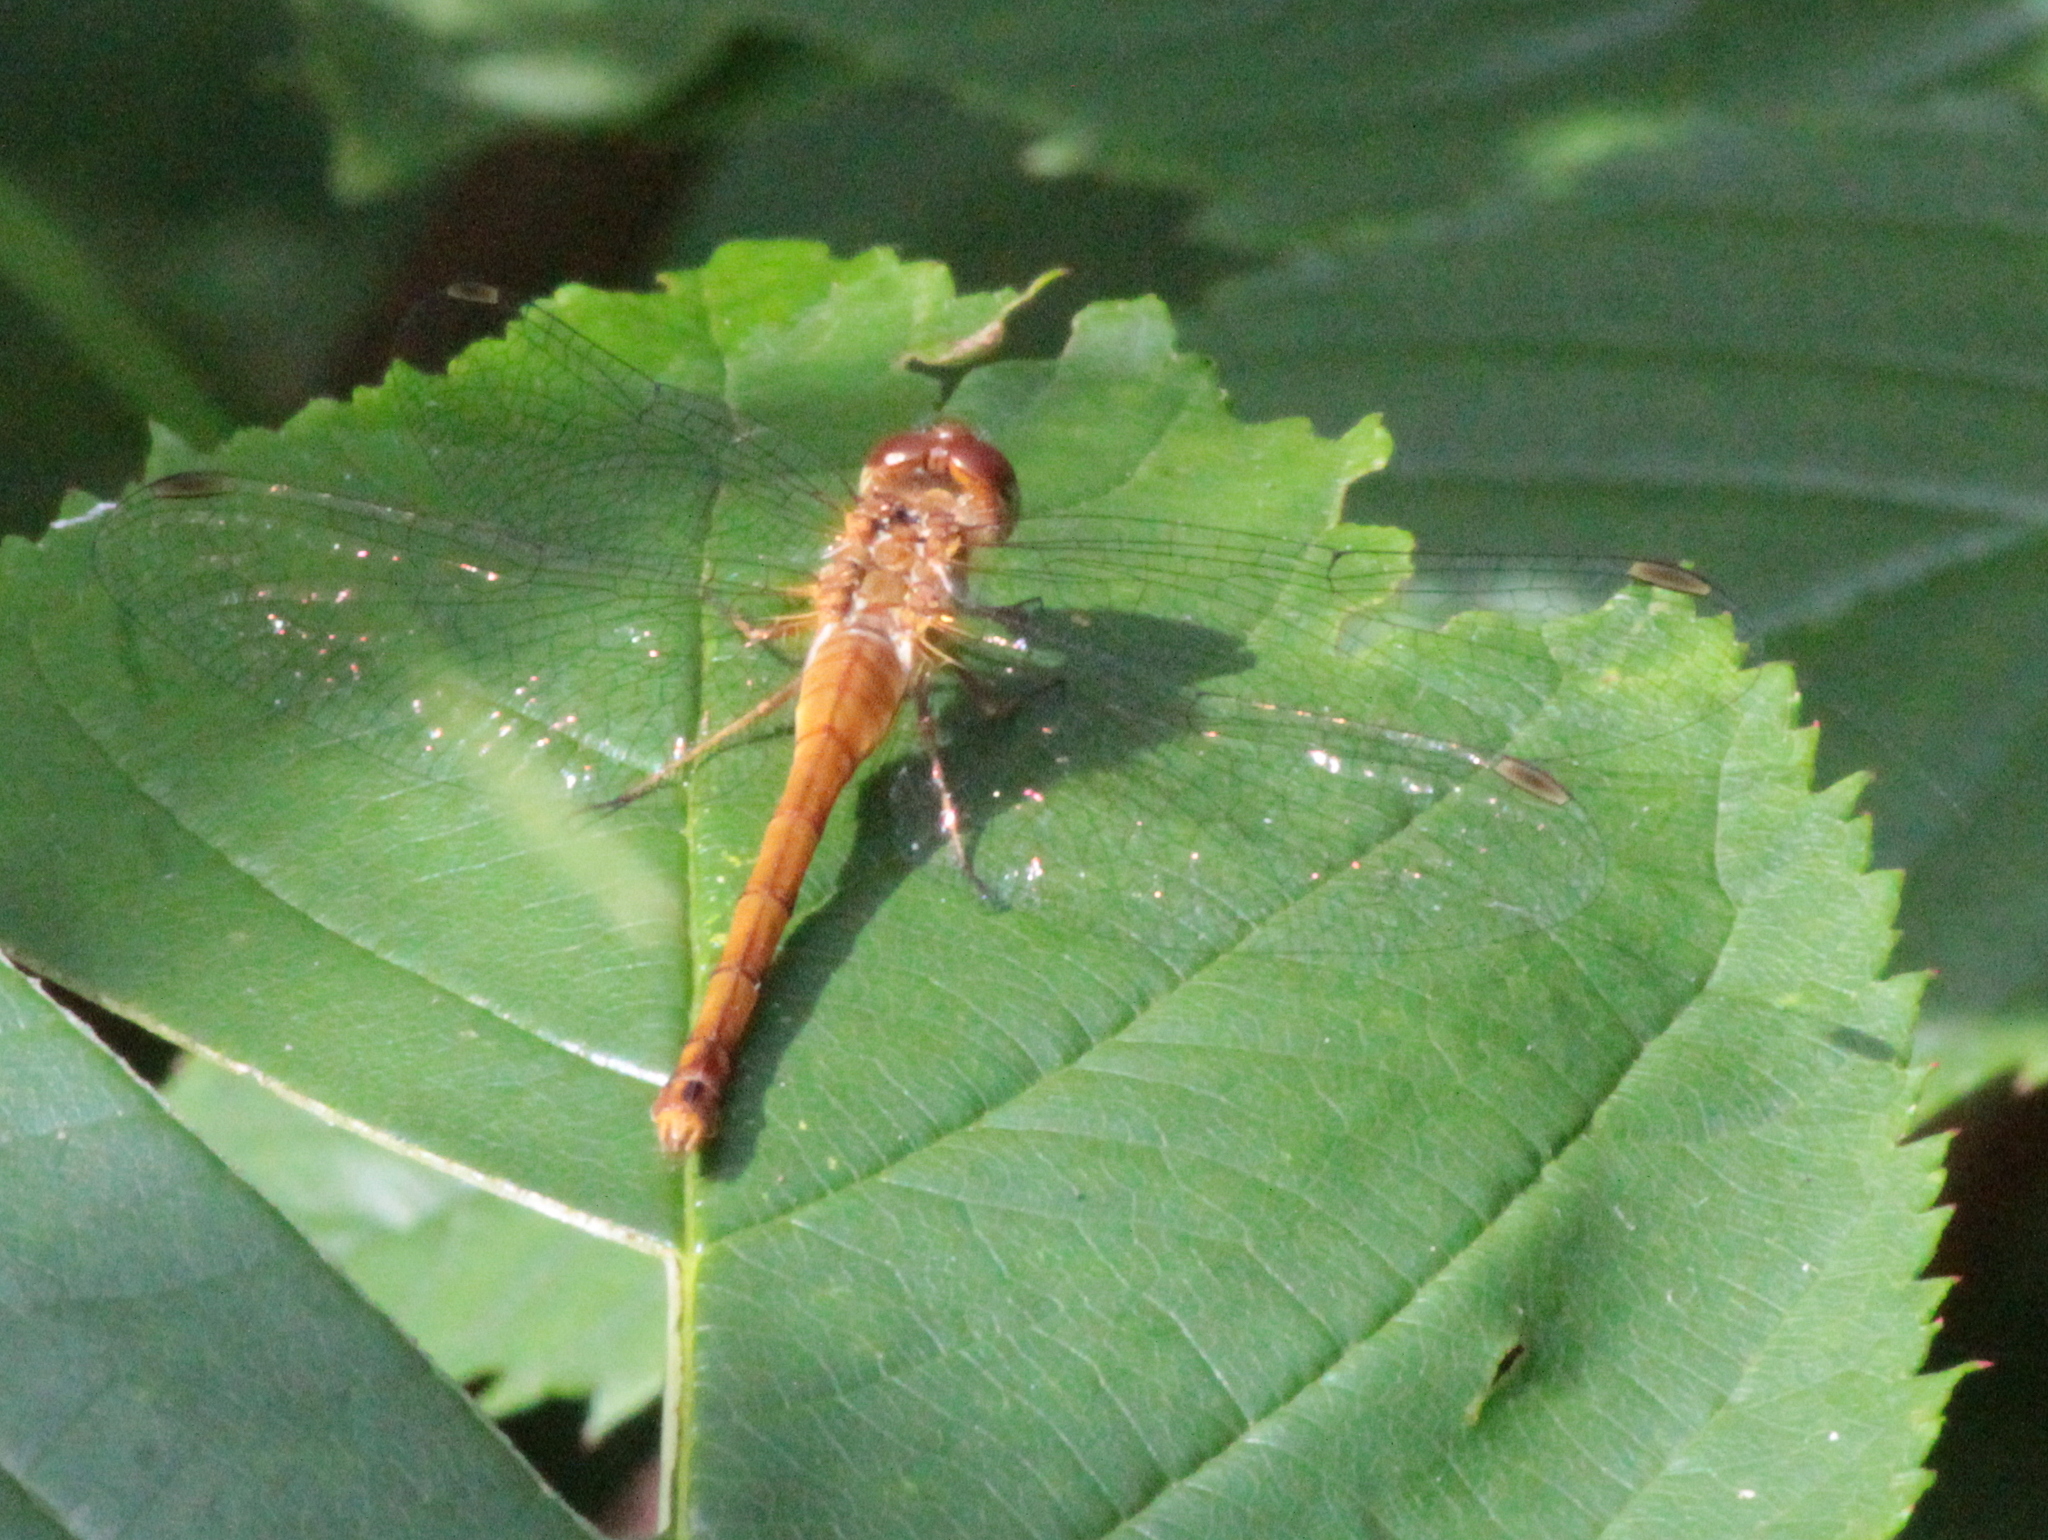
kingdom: Animalia
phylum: Arthropoda
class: Insecta
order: Odonata
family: Libellulidae
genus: Sympetrum
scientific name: Sympetrum vicinum
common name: Autumn meadowhawk
